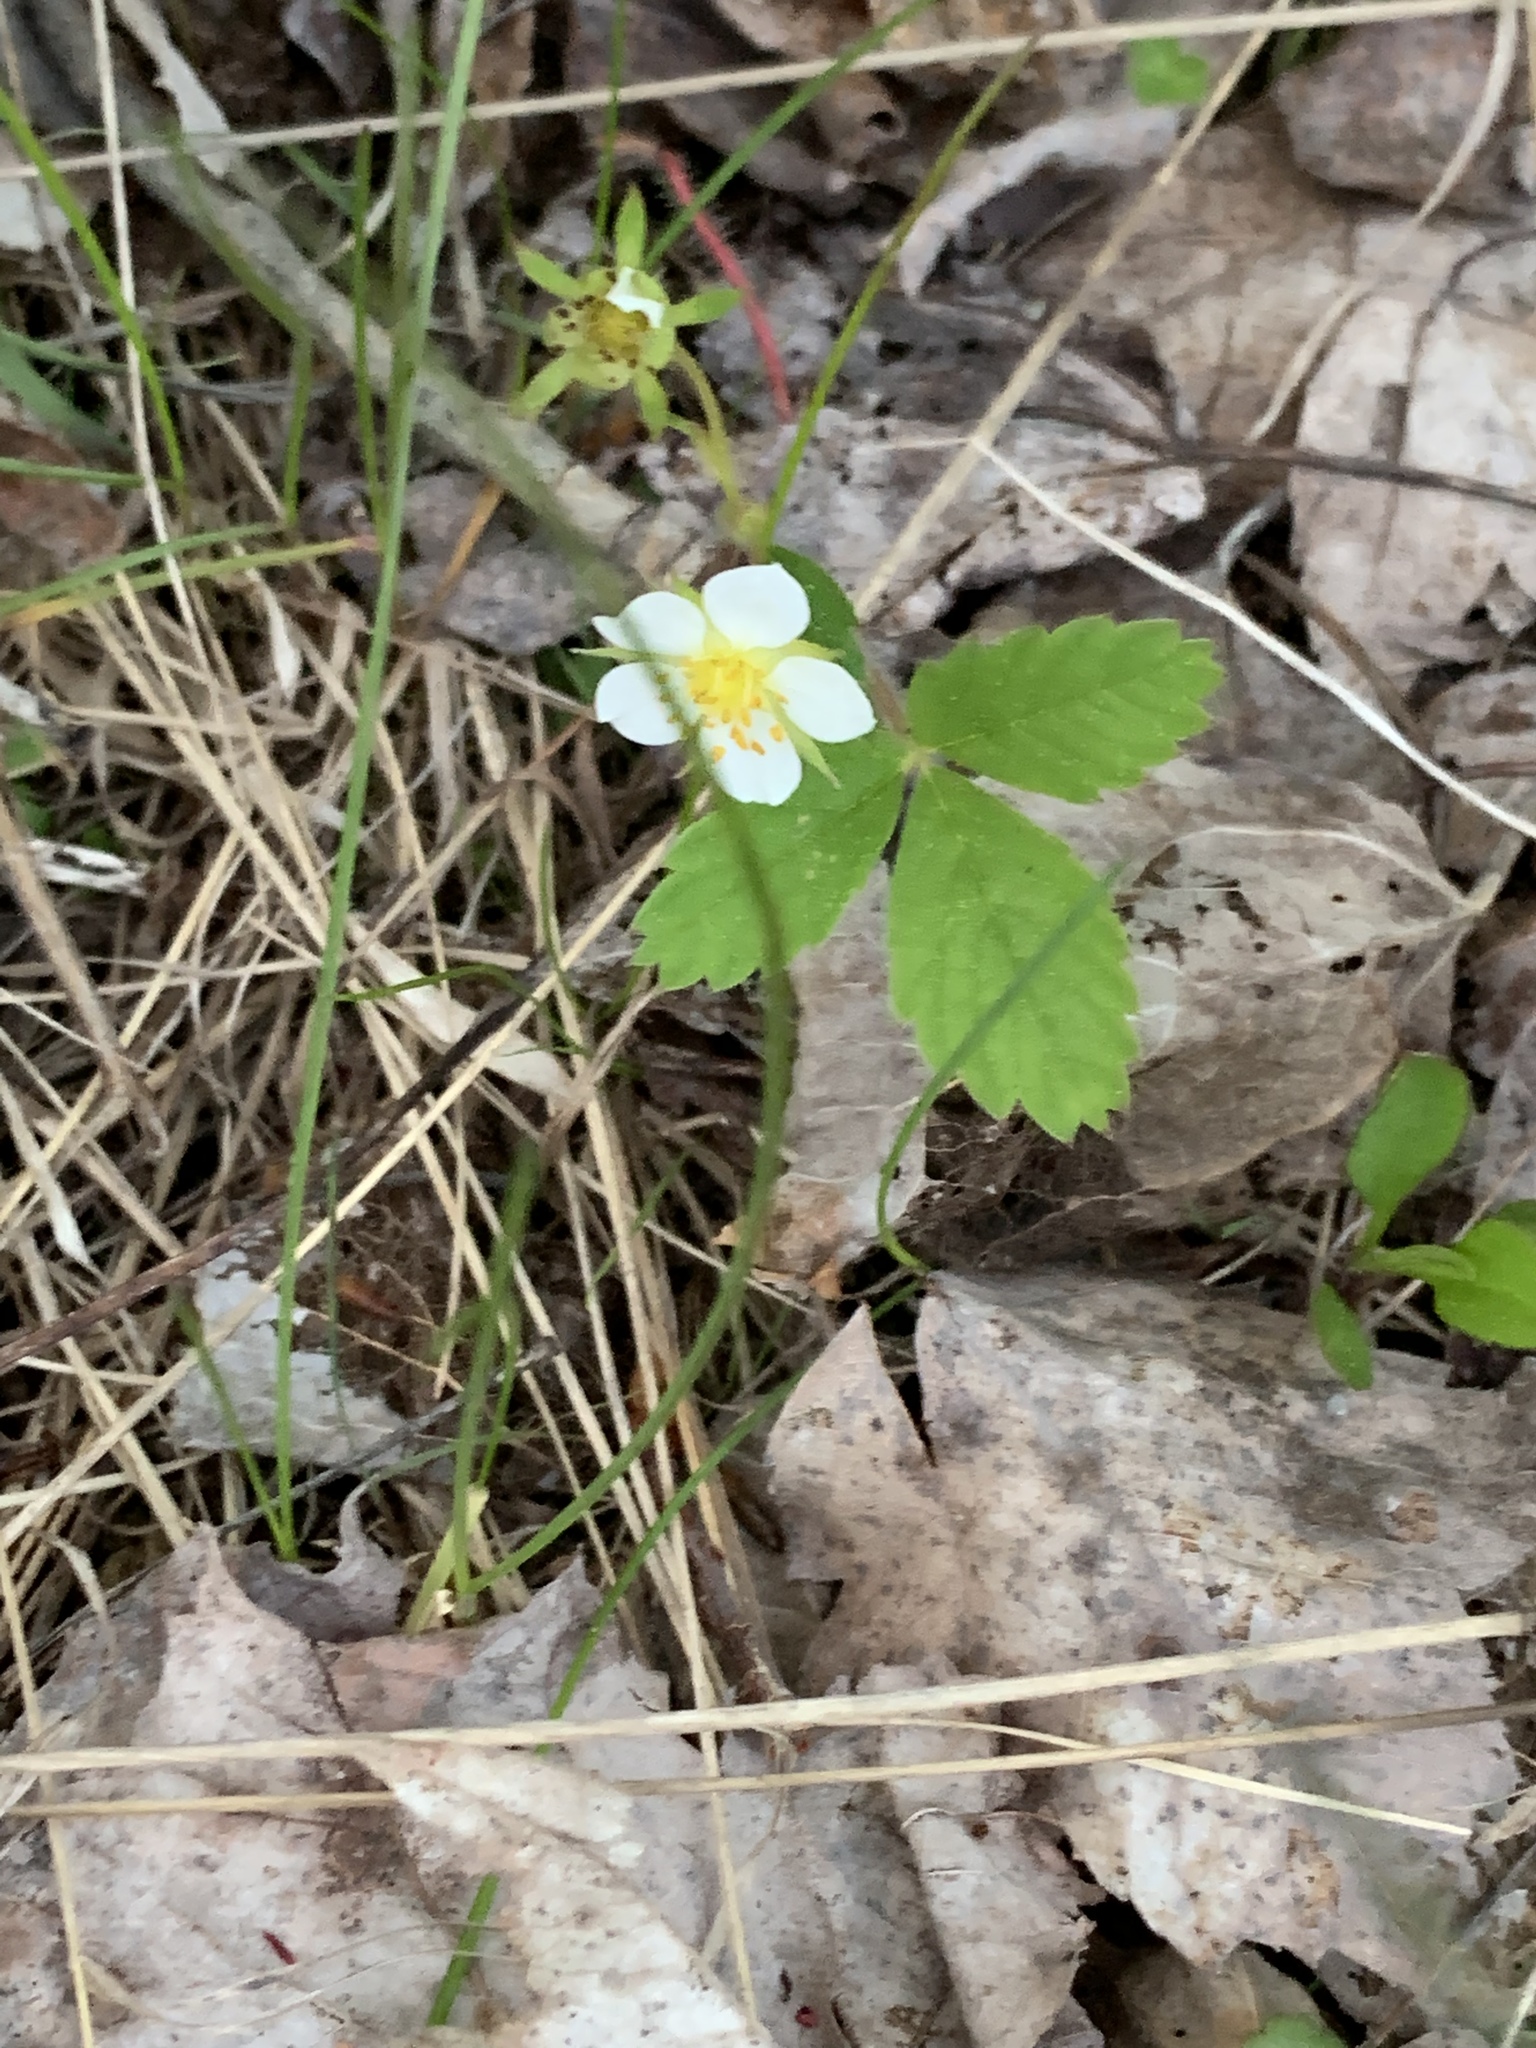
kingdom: Plantae
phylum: Tracheophyta
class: Magnoliopsida
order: Rosales
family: Rosaceae
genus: Fragaria
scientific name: Fragaria vesca
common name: Wild strawberry
